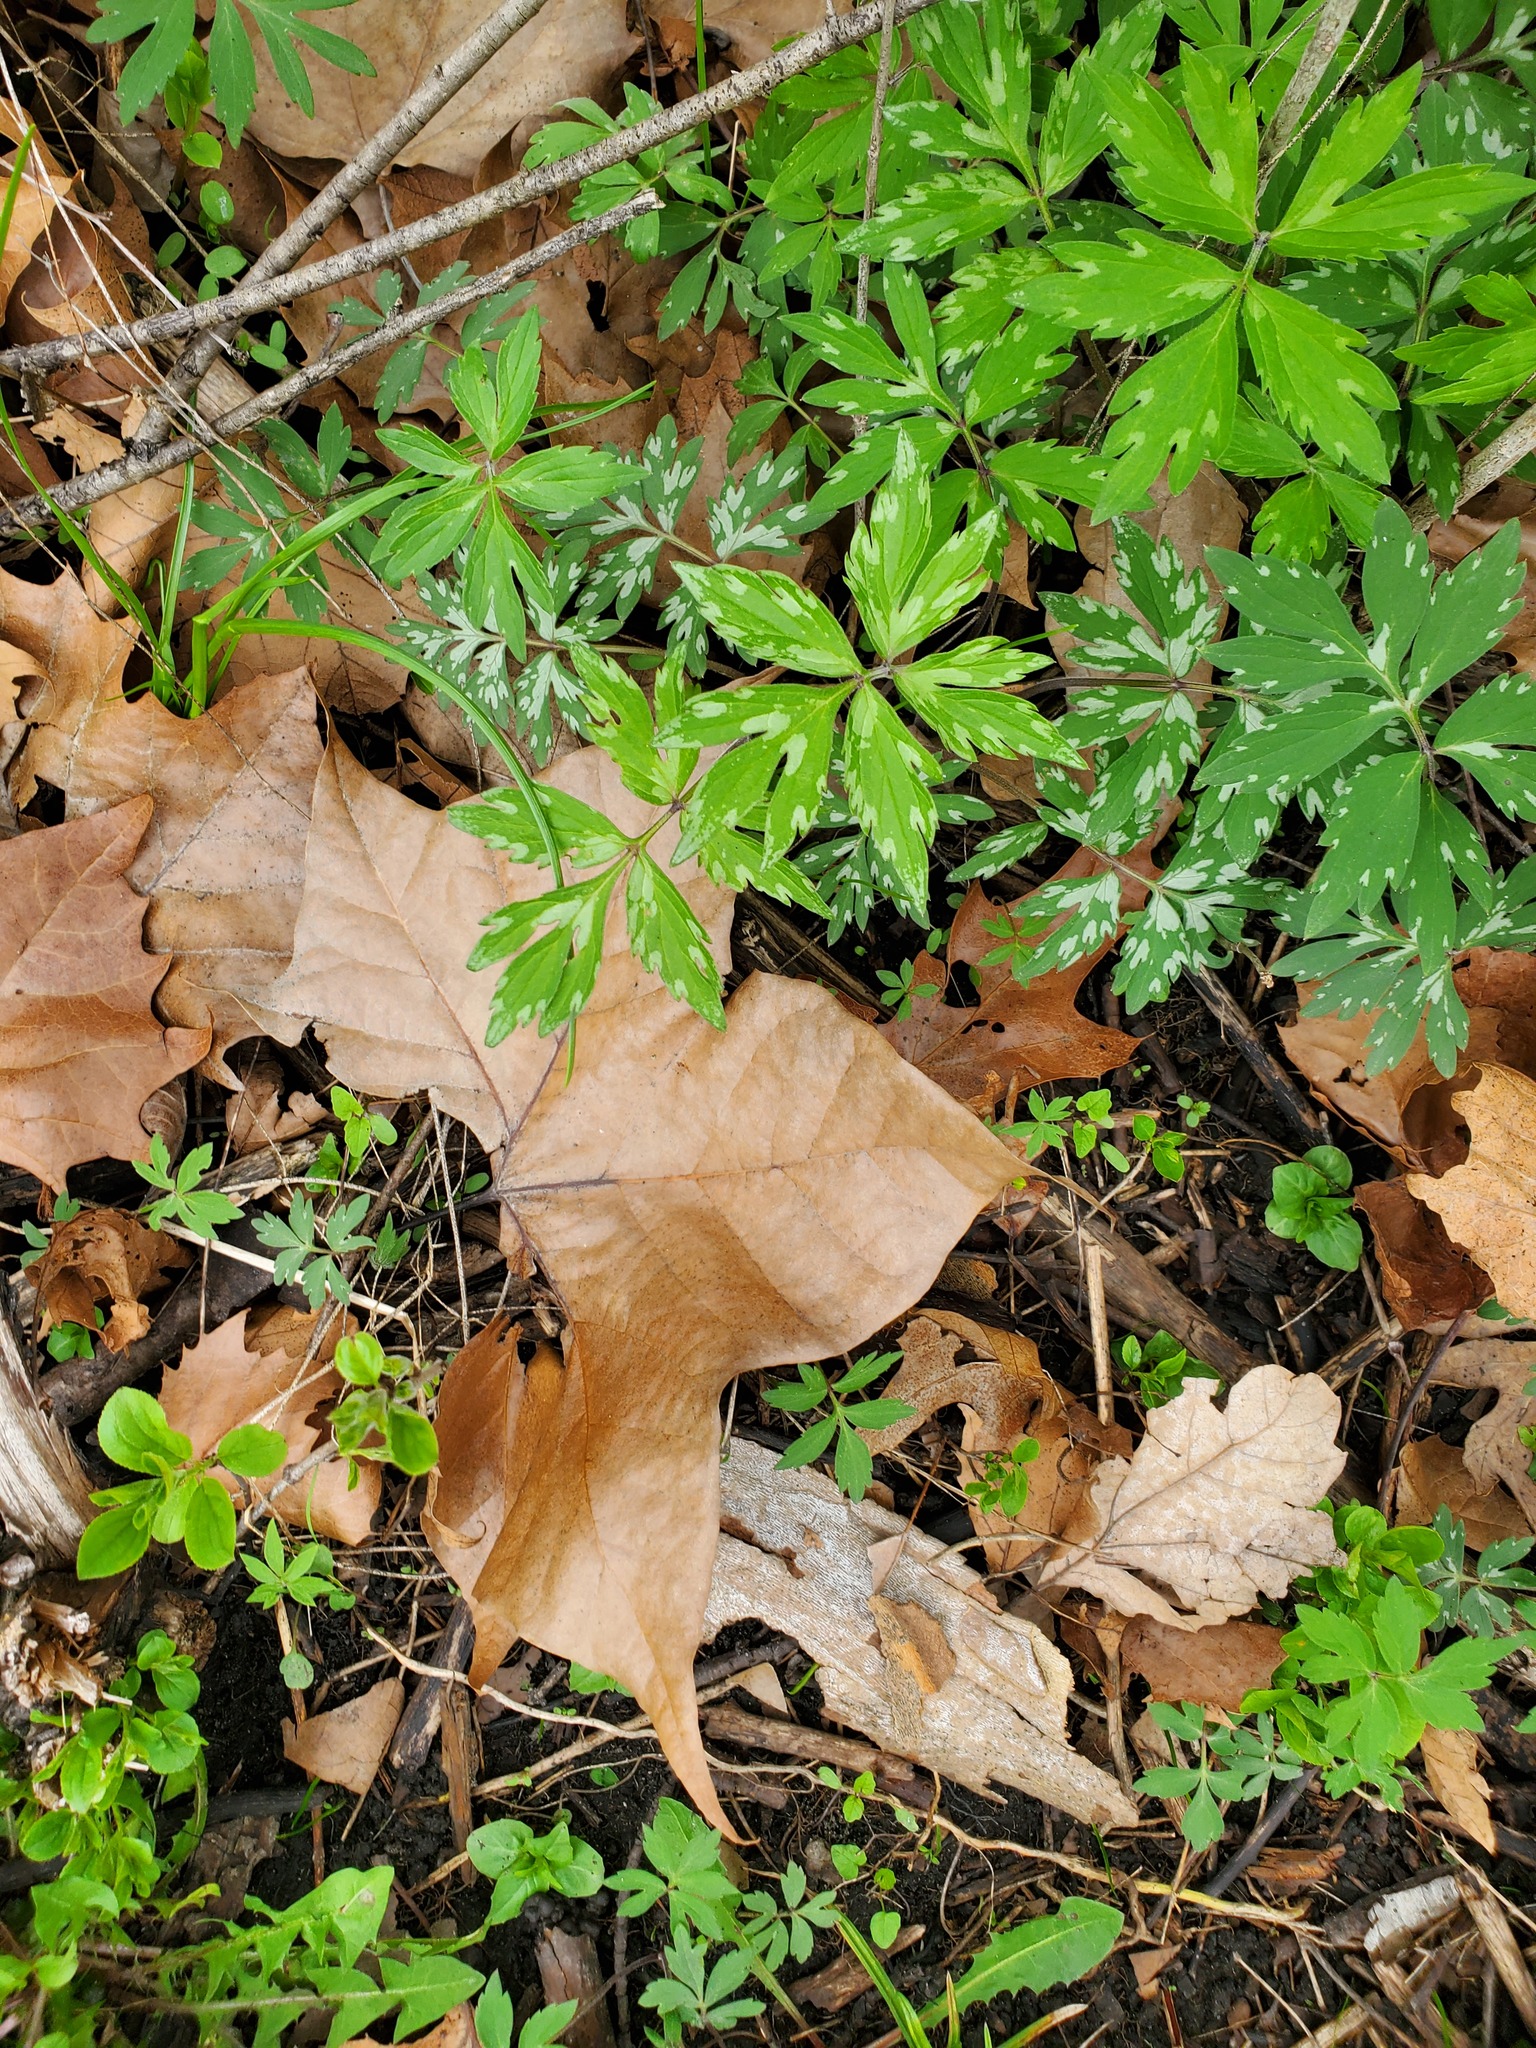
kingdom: Plantae
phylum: Tracheophyta
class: Magnoliopsida
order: Boraginales
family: Hydrophyllaceae
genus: Hydrophyllum
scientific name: Hydrophyllum virginianum
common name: Virginia waterleaf
